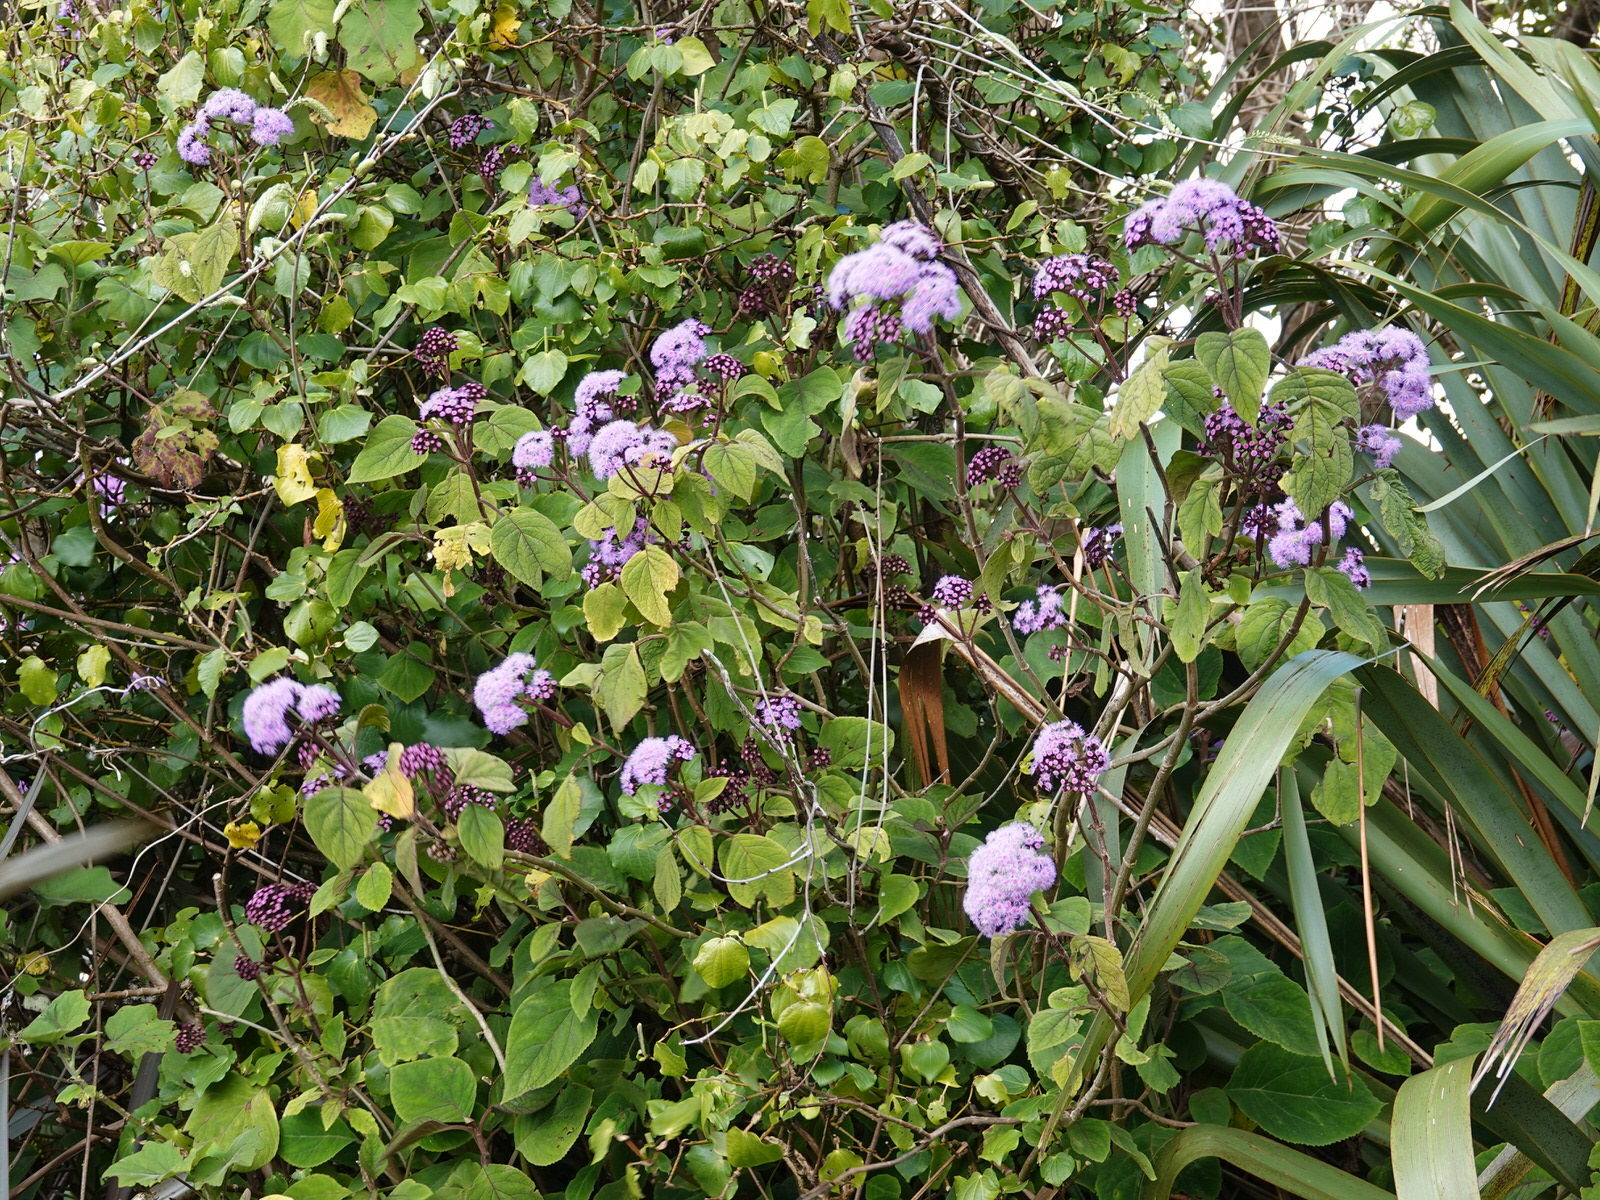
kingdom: Plantae
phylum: Tracheophyta
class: Magnoliopsida
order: Asterales
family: Asteraceae
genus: Bartlettina
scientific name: Bartlettina sordida
